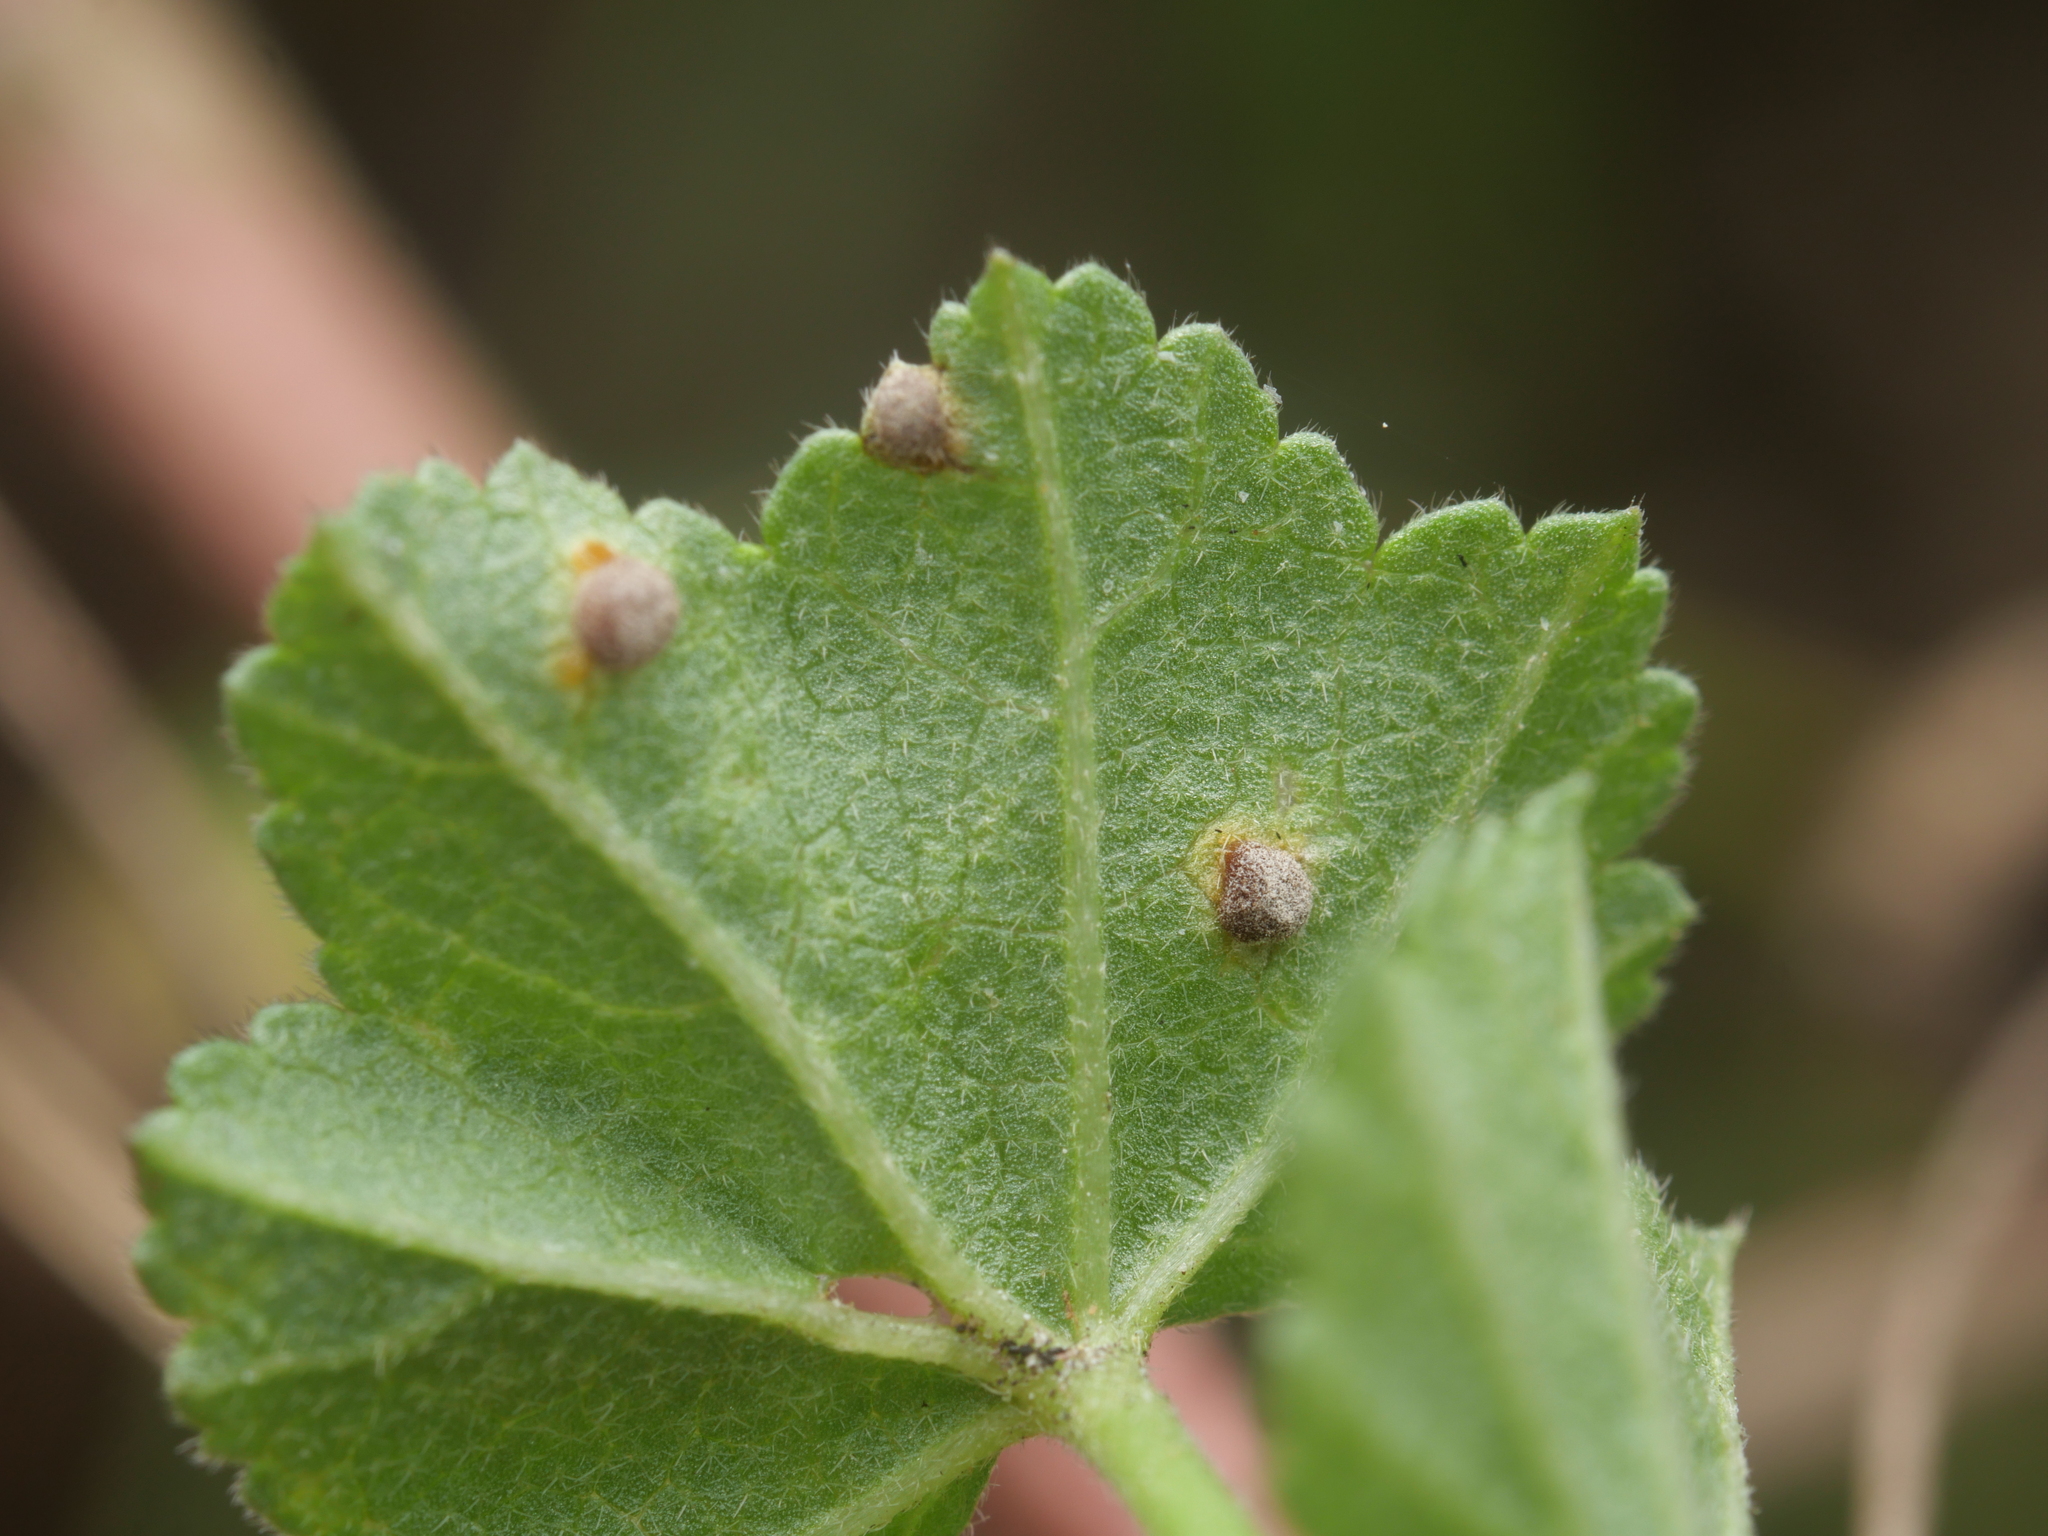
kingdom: Fungi
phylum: Basidiomycota
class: Pucciniomycetes
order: Pucciniales
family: Pucciniaceae
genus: Puccinia
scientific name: Puccinia malvacearum
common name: Hollyhock rust
